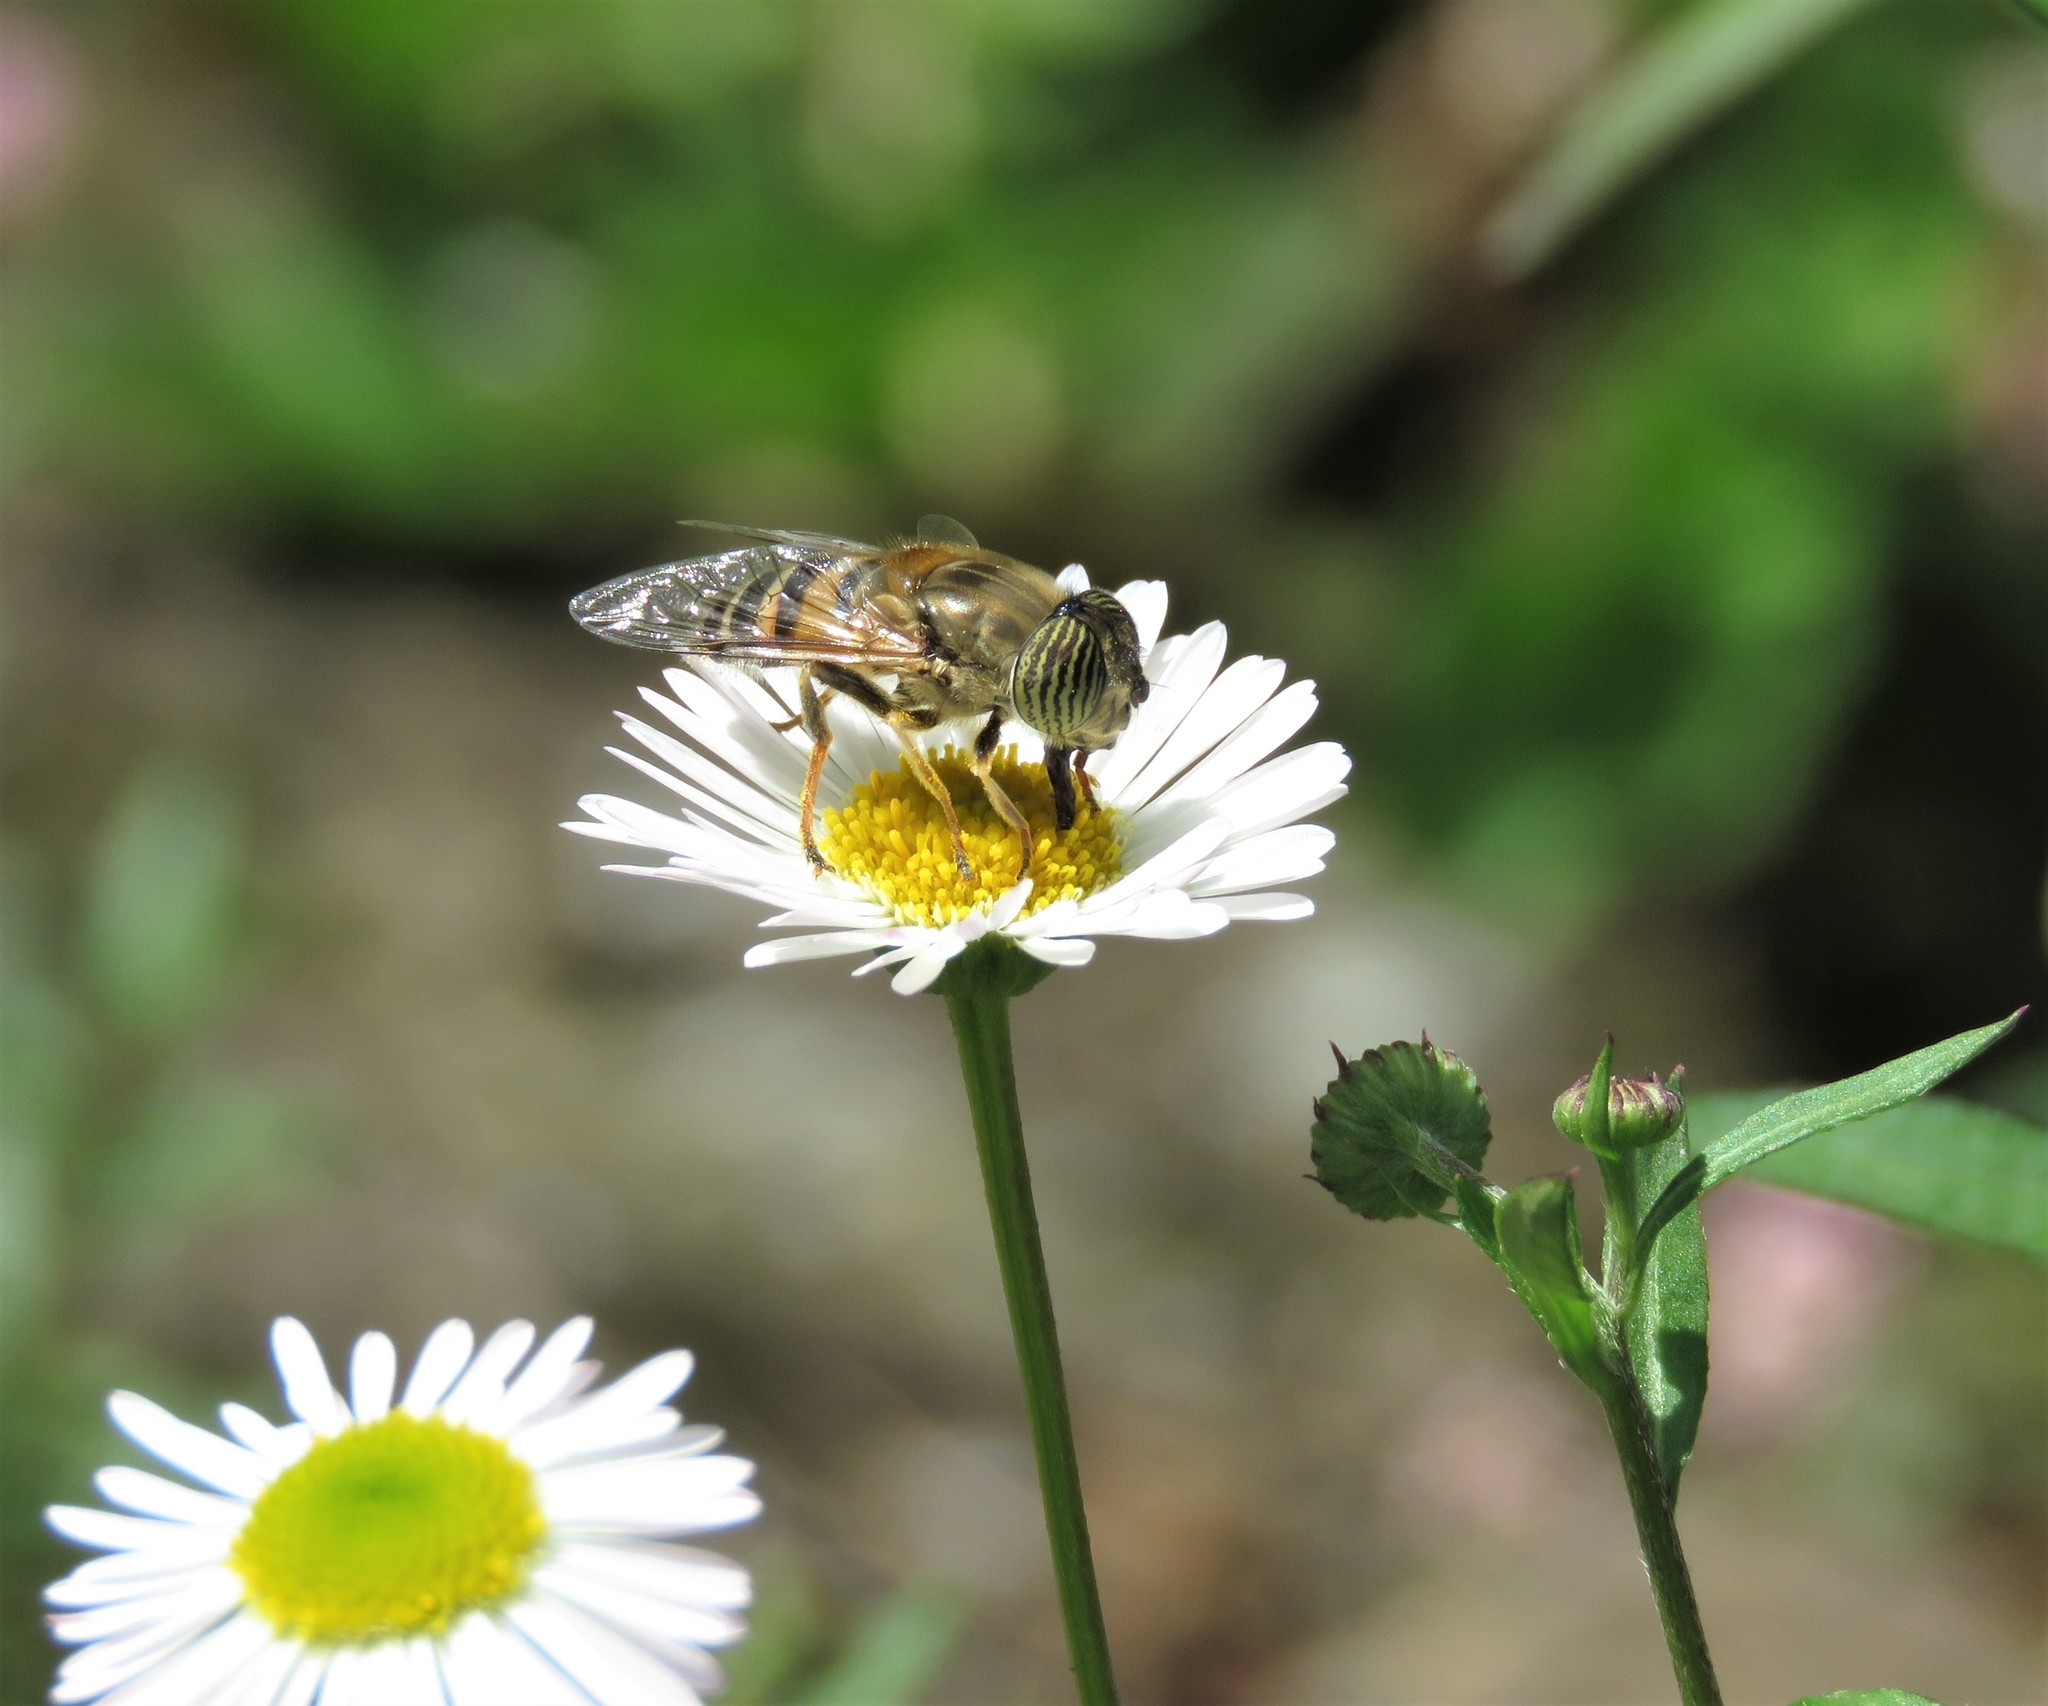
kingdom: Plantae
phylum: Tracheophyta
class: Magnoliopsida
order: Asterales
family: Asteraceae
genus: Erigeron
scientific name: Erigeron karvinskianus
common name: Mexican fleabane
